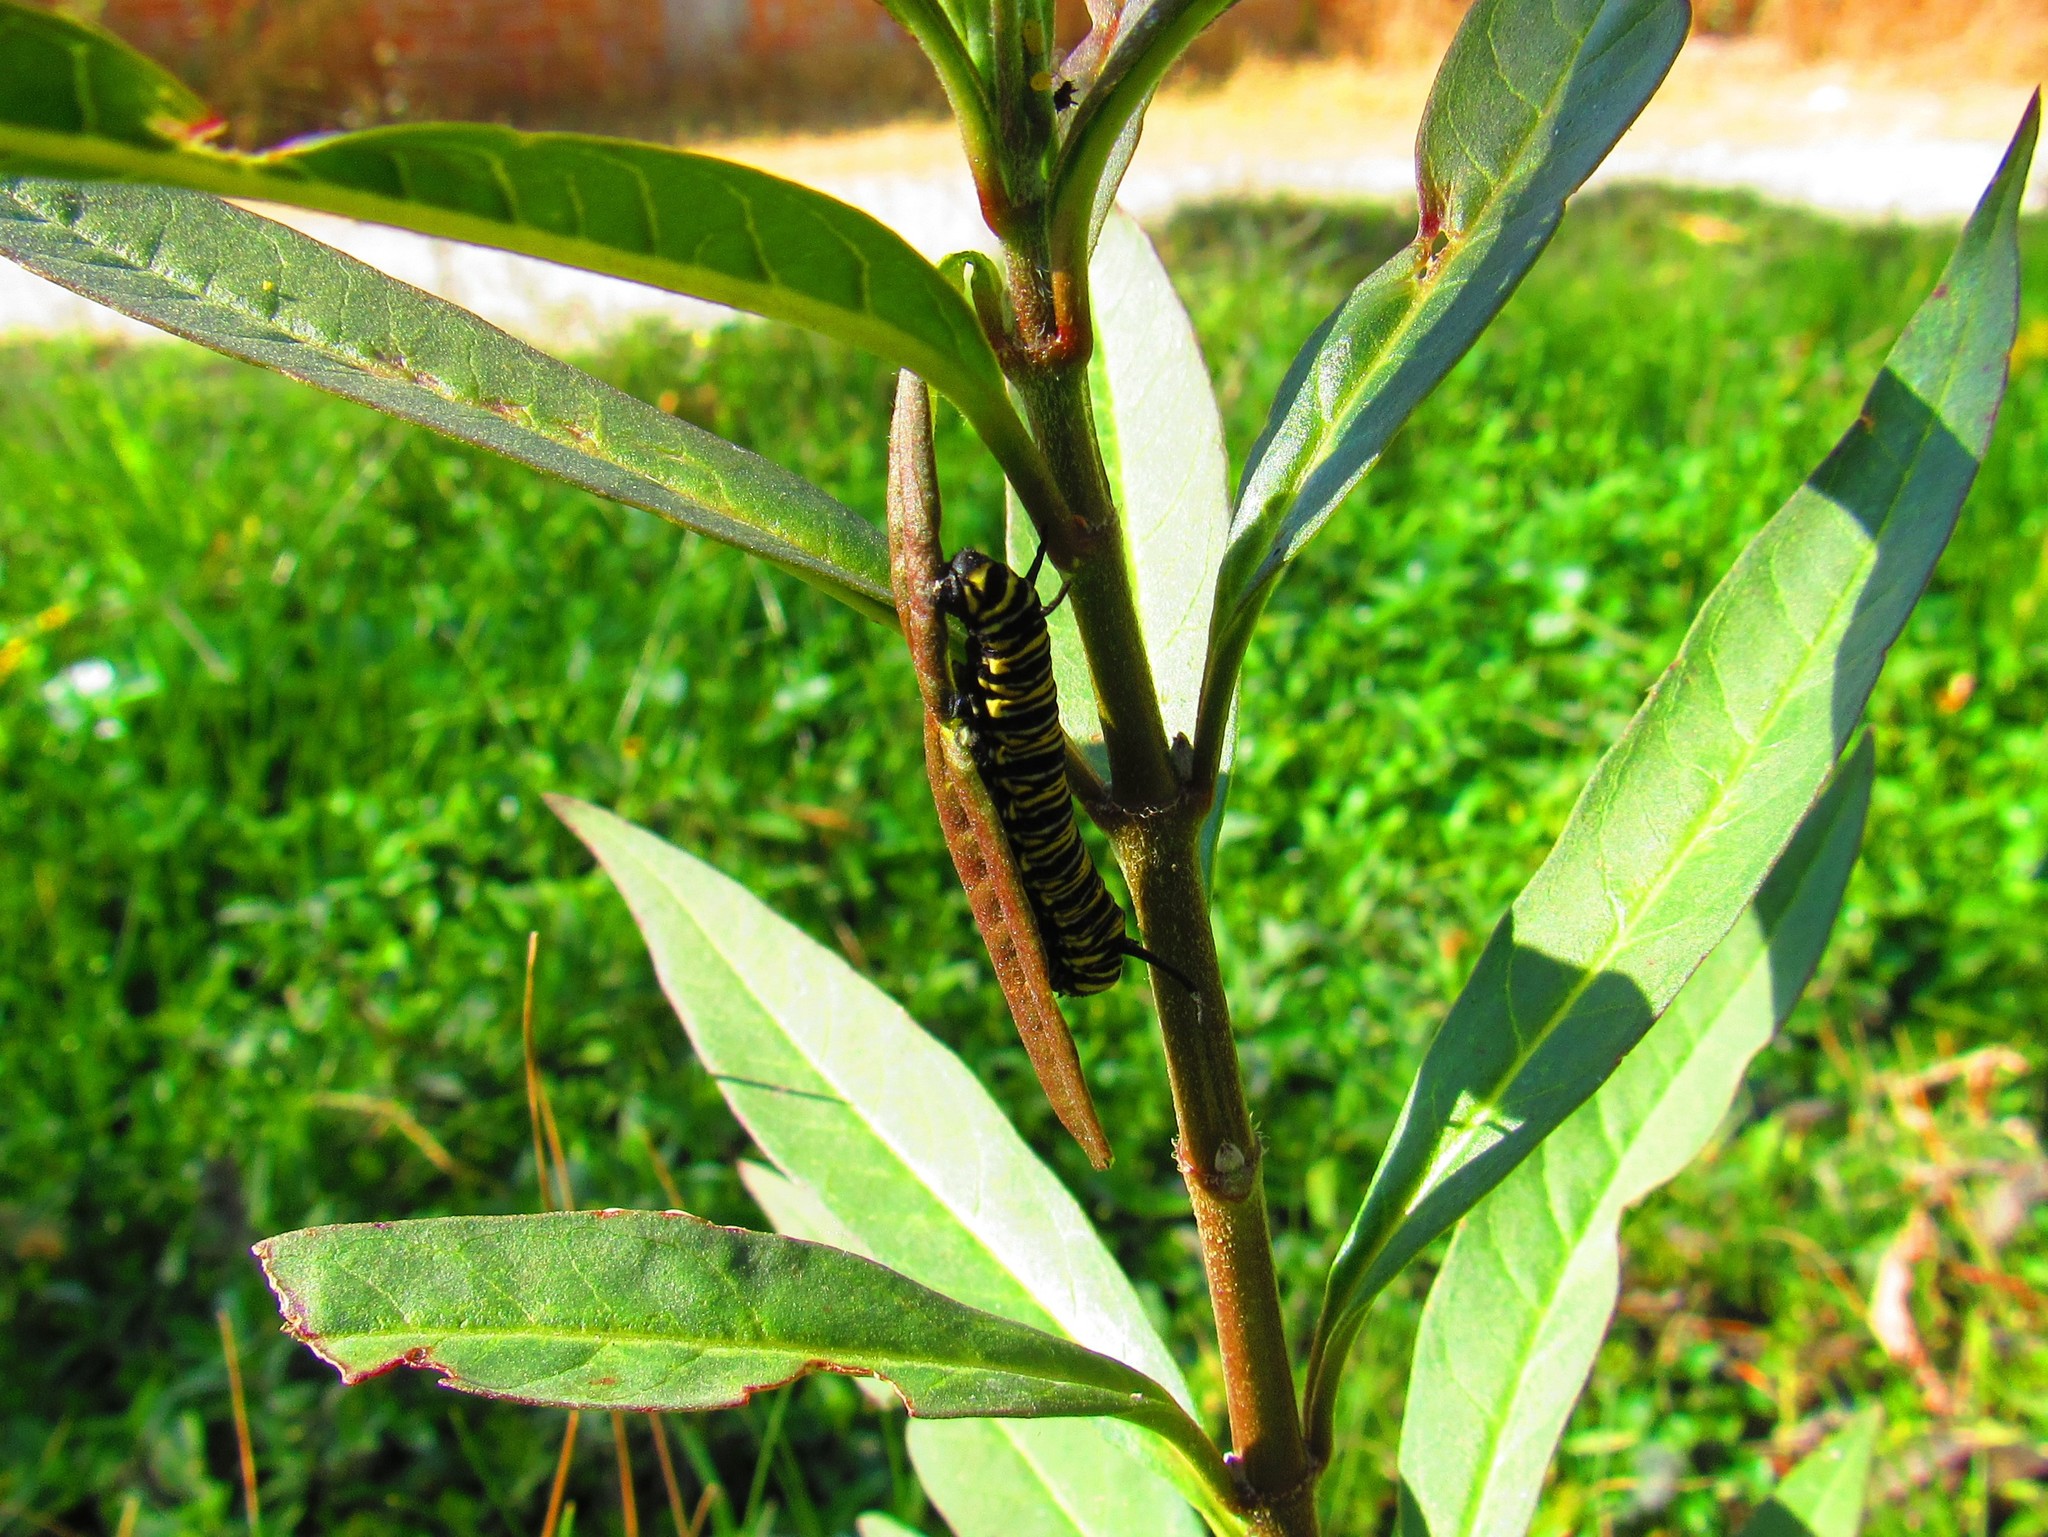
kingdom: Animalia
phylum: Arthropoda
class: Insecta
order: Lepidoptera
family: Nymphalidae
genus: Danaus
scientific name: Danaus plexippus
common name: Monarch
